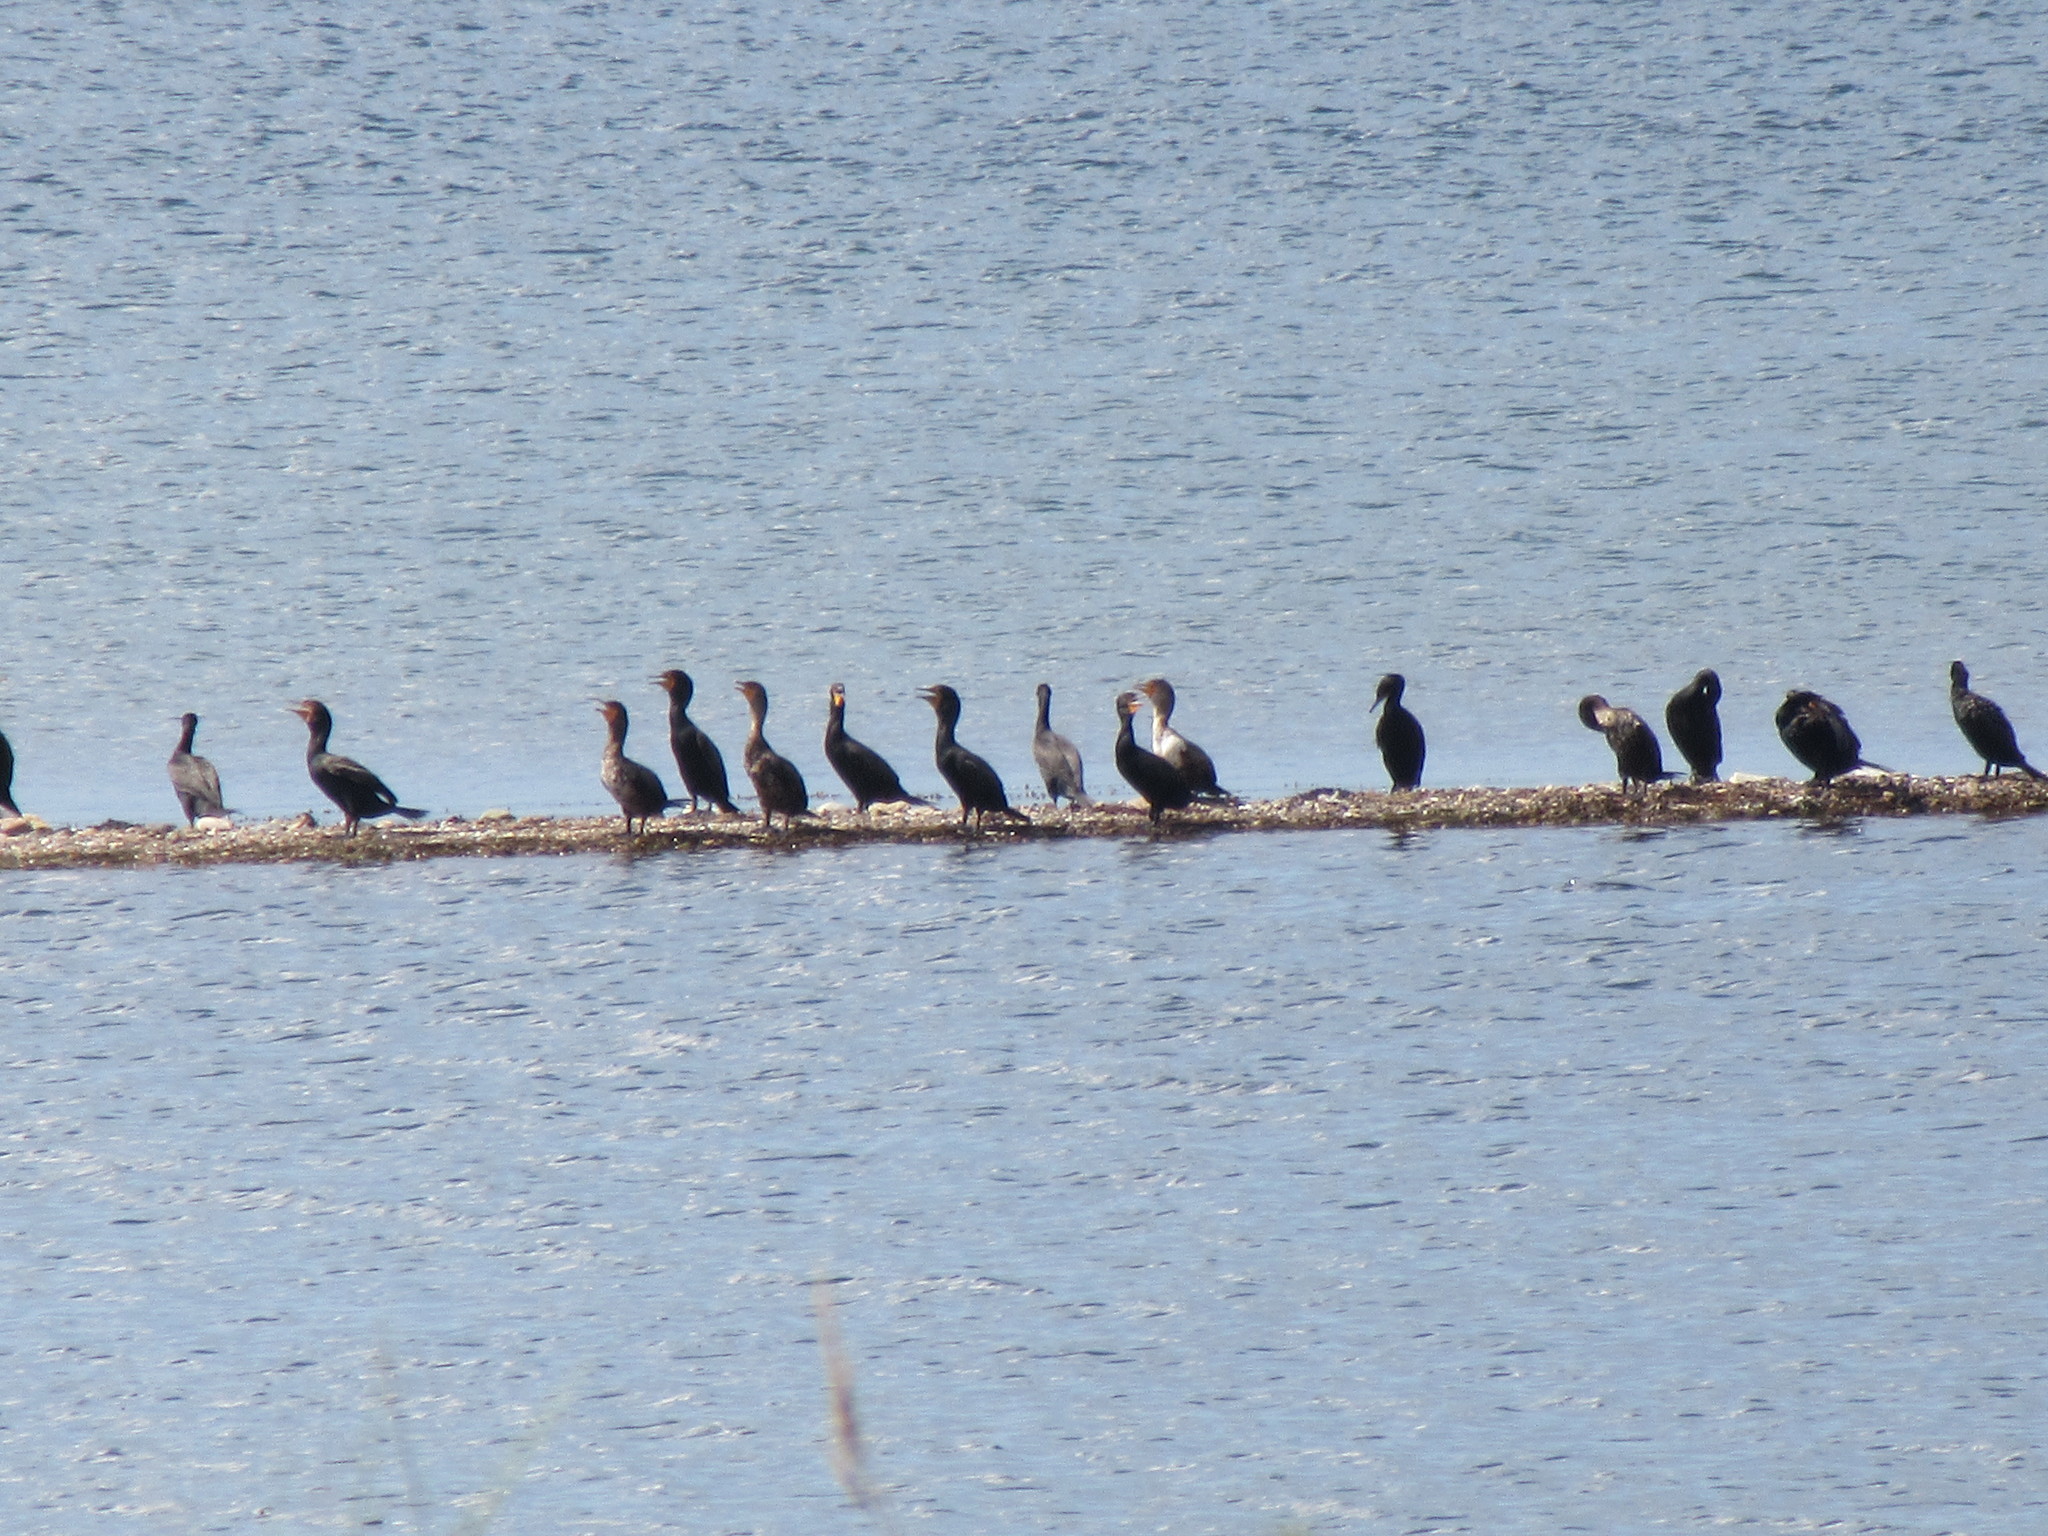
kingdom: Animalia
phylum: Chordata
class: Aves
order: Suliformes
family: Phalacrocoracidae
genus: Phalacrocorax
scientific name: Phalacrocorax auritus
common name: Double-crested cormorant
